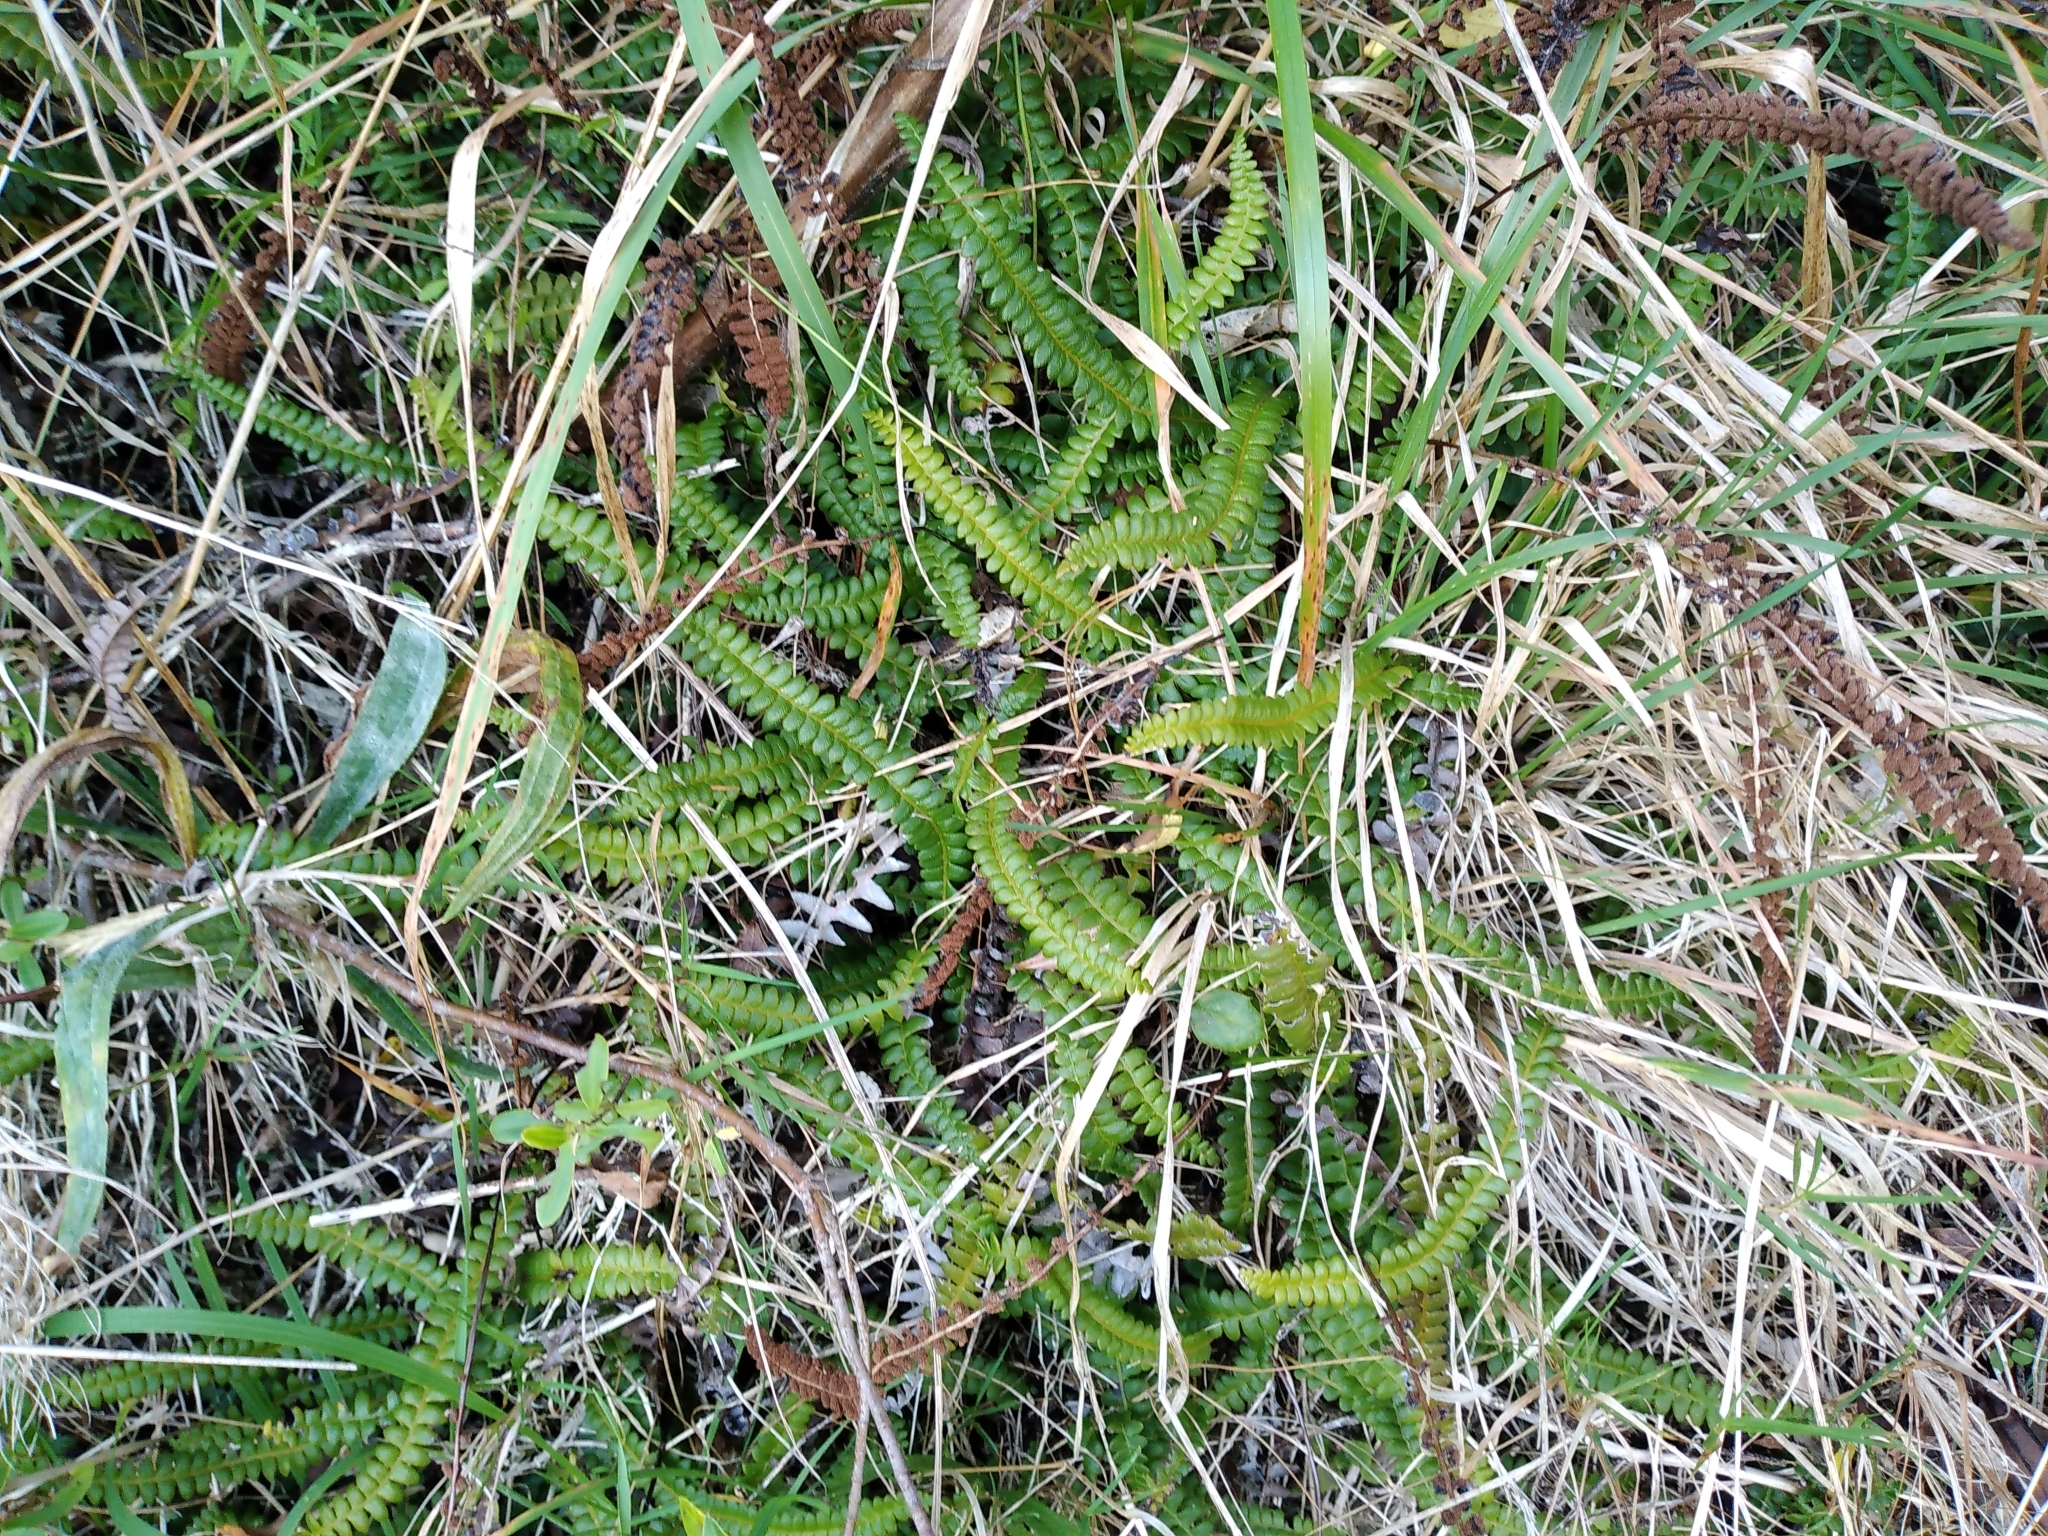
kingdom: Plantae
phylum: Tracheophyta
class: Polypodiopsida
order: Polypodiales
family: Blechnaceae
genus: Austroblechnum
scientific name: Austroblechnum penna-marina
